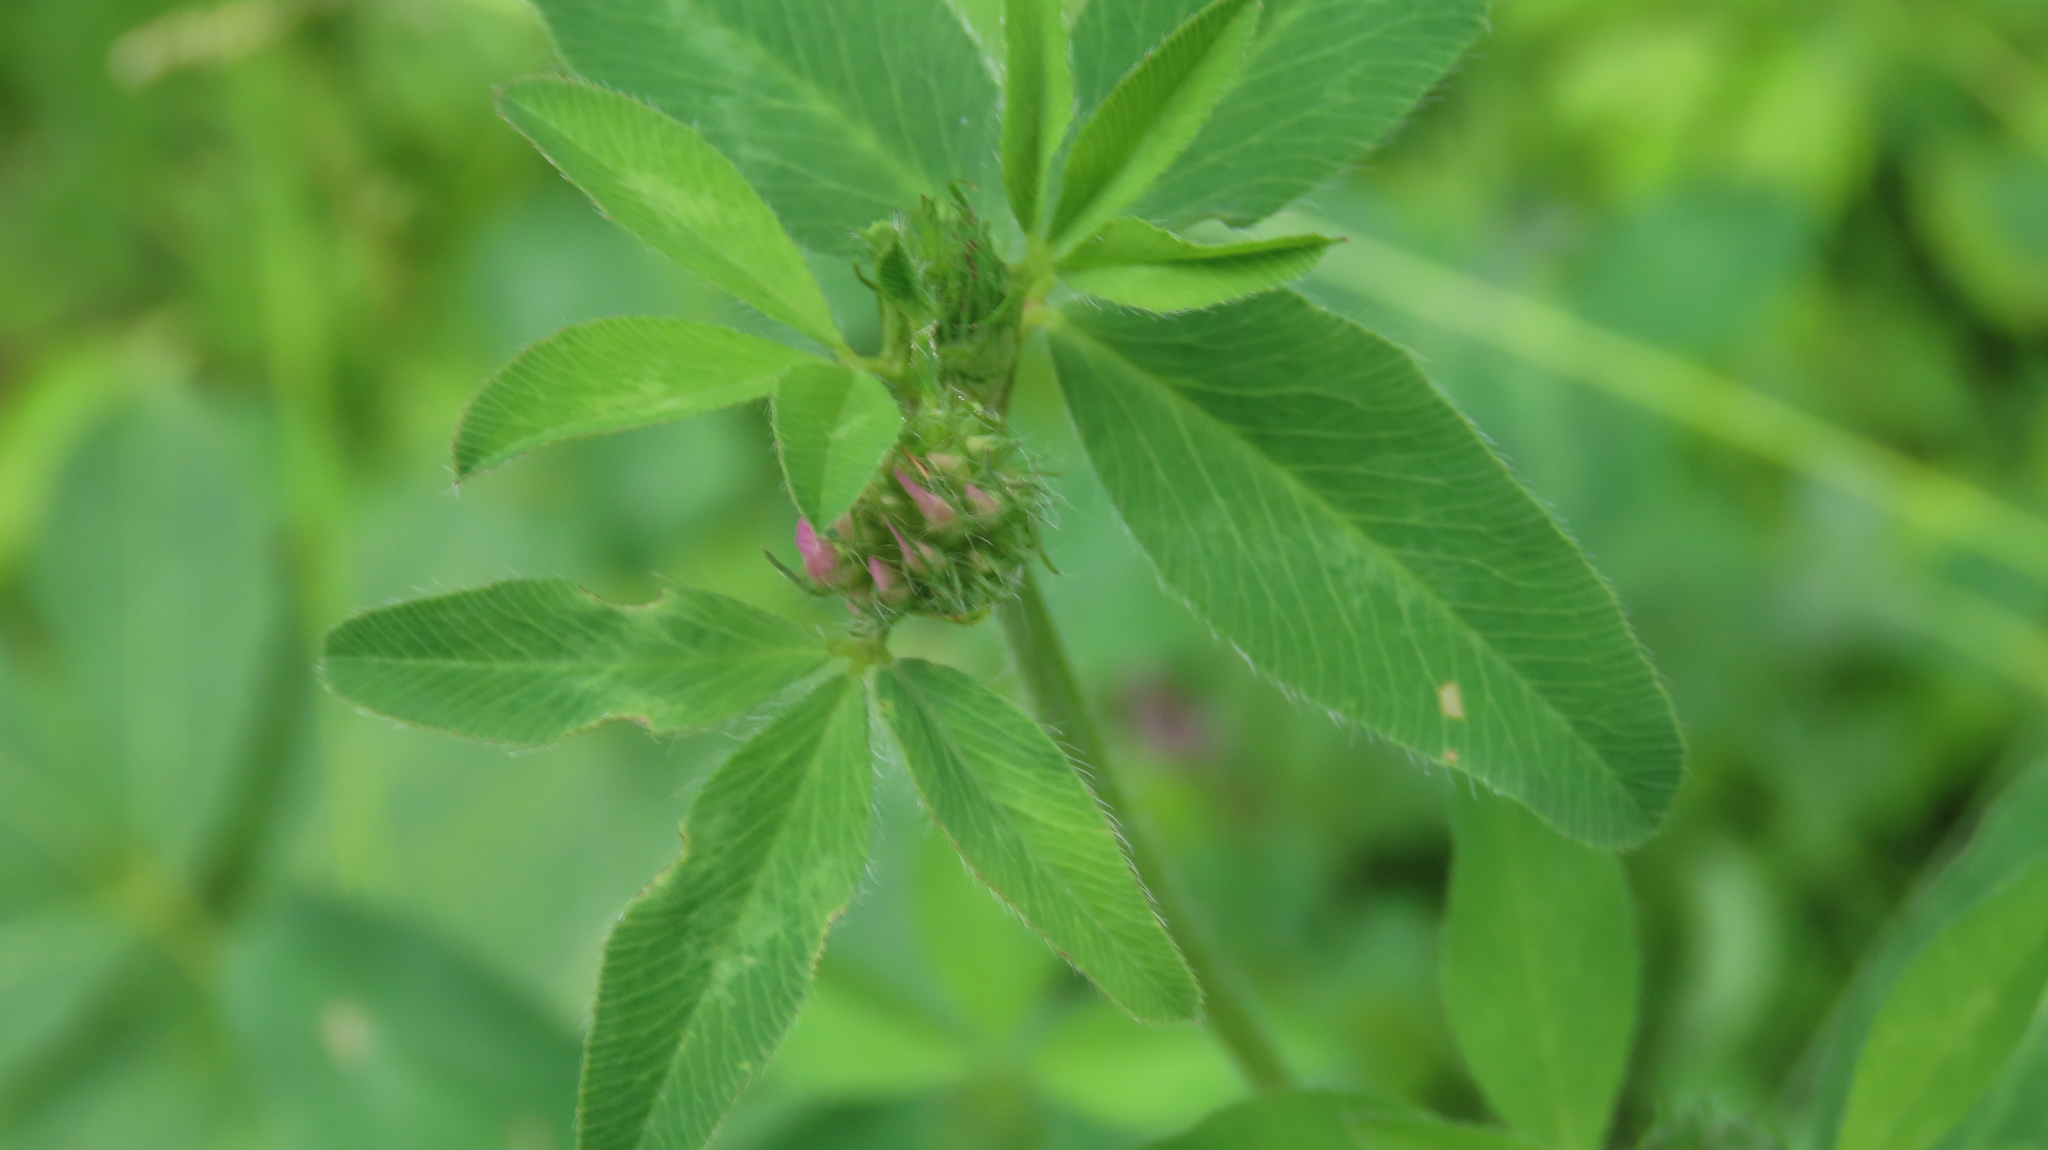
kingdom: Plantae
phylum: Tracheophyta
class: Magnoliopsida
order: Fabales
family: Fabaceae
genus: Trifolium
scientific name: Trifolium pratense
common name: Red clover
